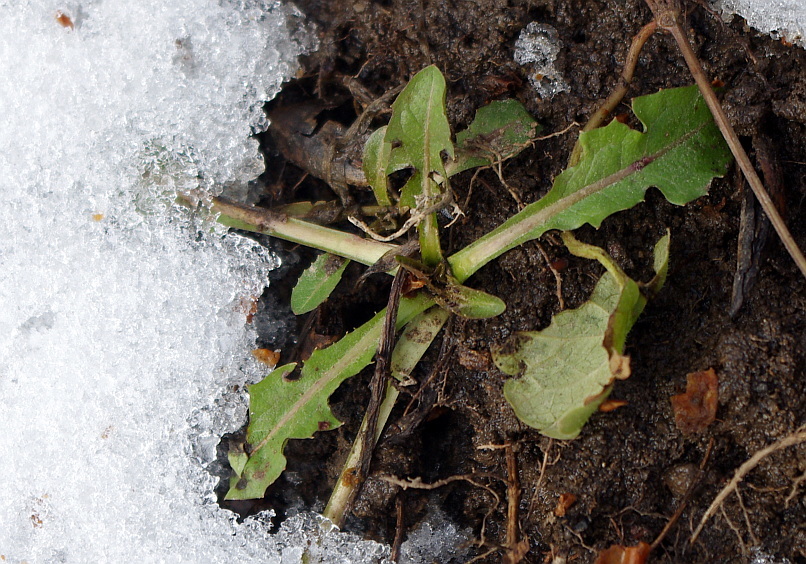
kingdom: Plantae
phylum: Tracheophyta
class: Magnoliopsida
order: Asterales
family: Asteraceae
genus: Taraxacum
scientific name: Taraxacum officinale
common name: Common dandelion
